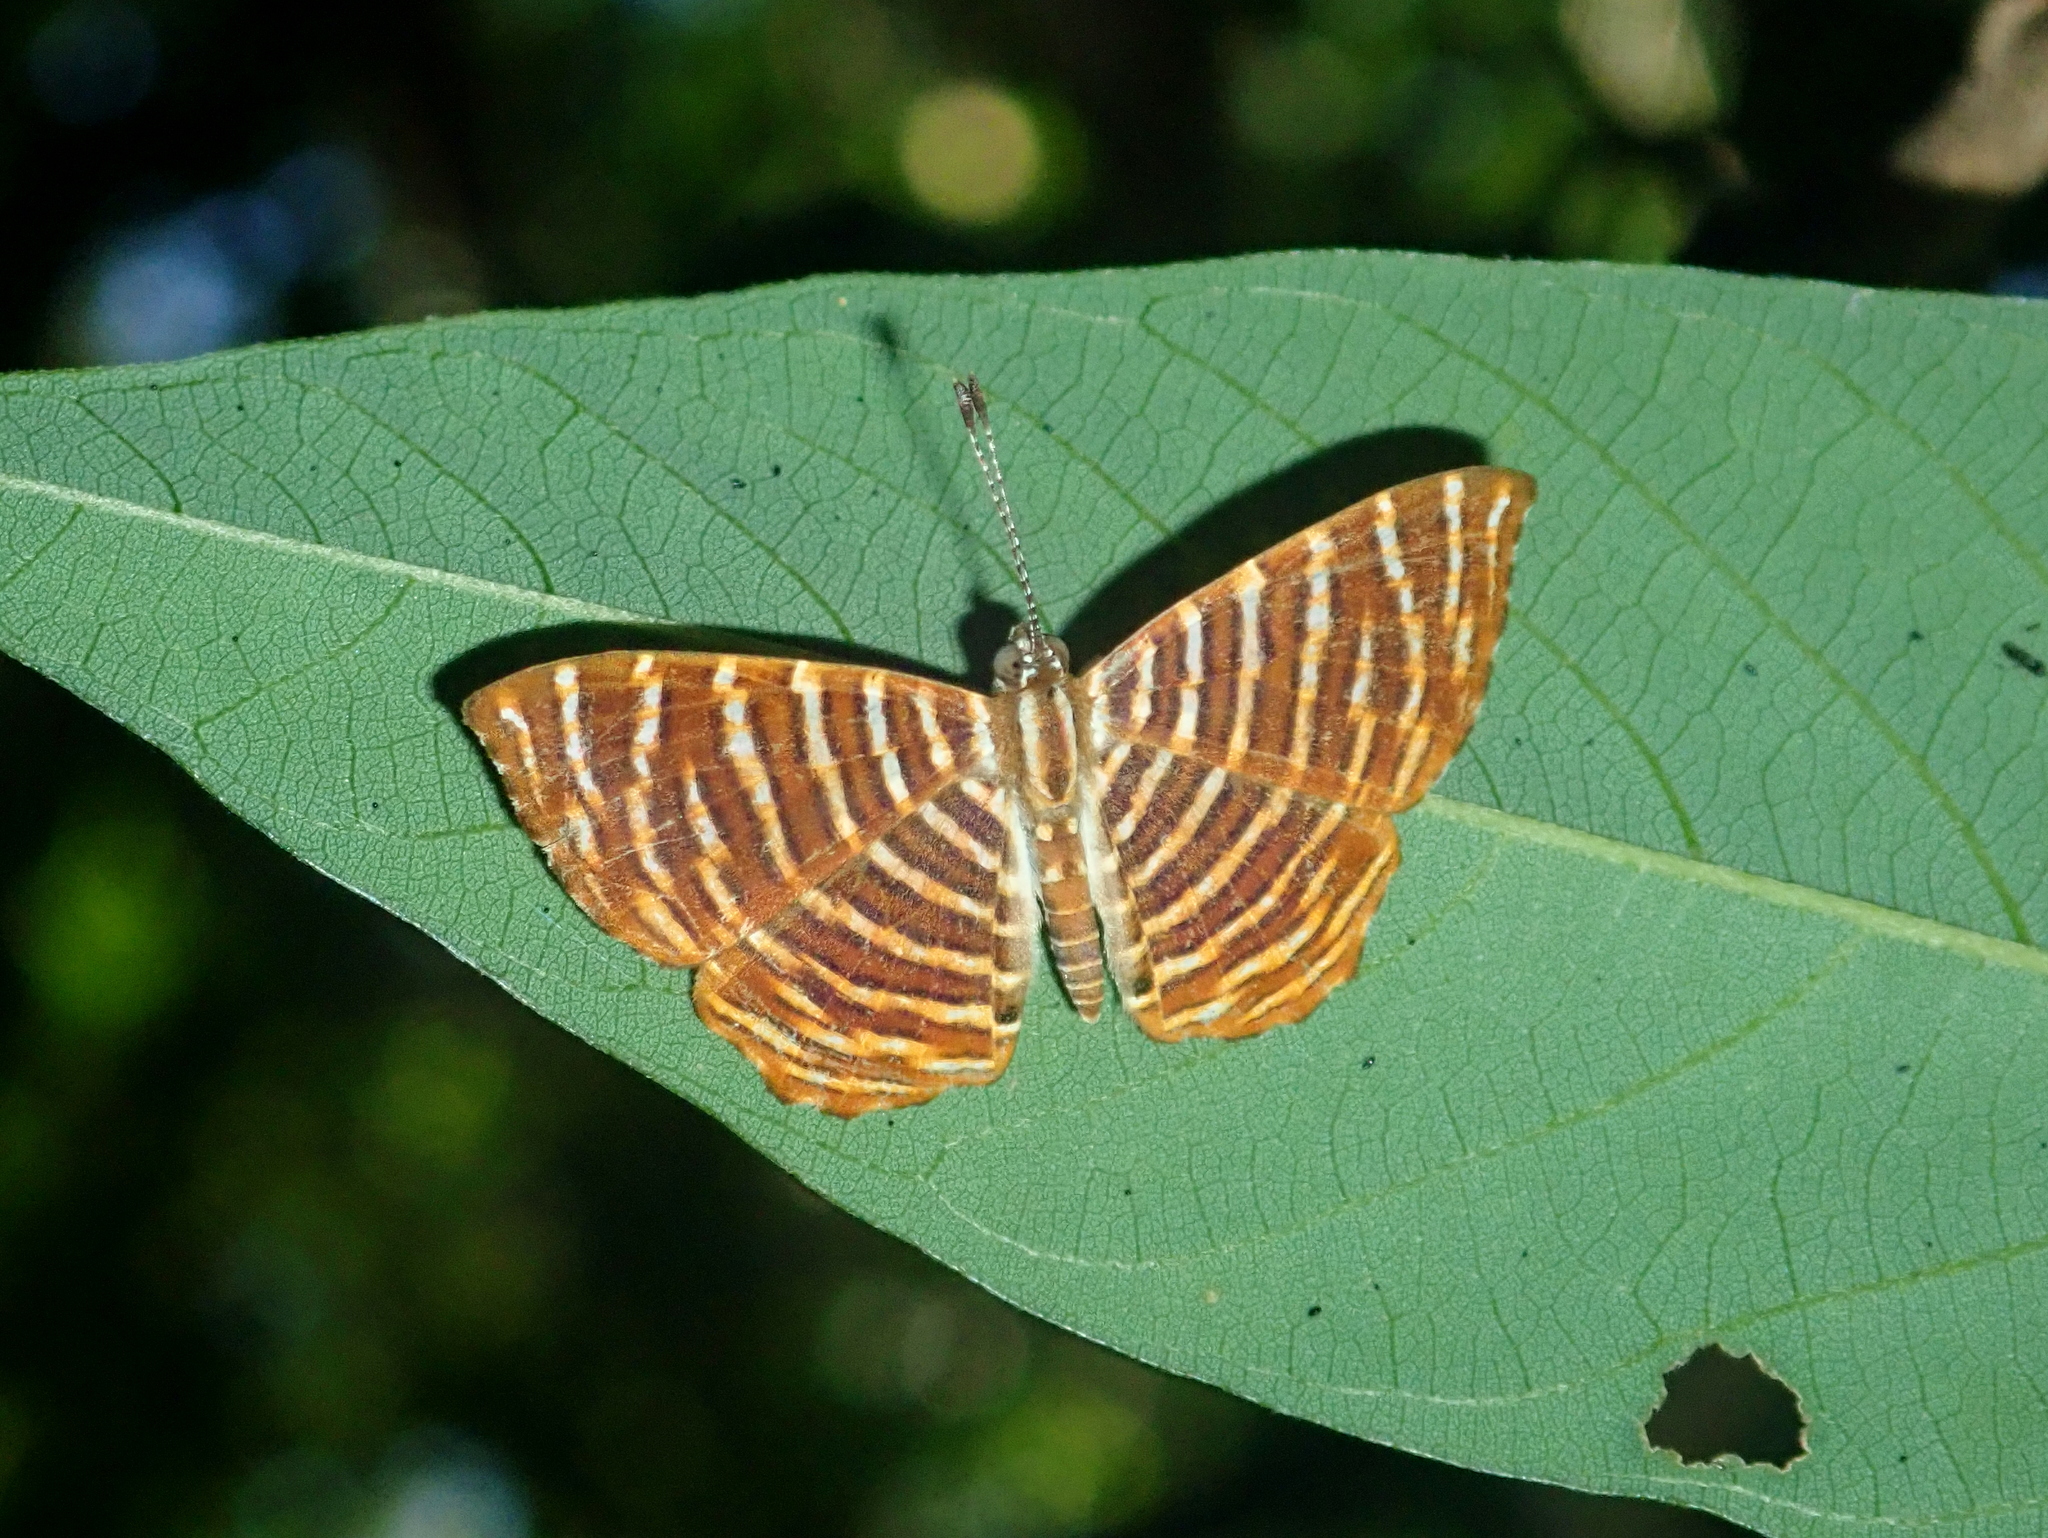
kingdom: Animalia
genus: Hyphilaria
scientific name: Hyphilaria thasus
